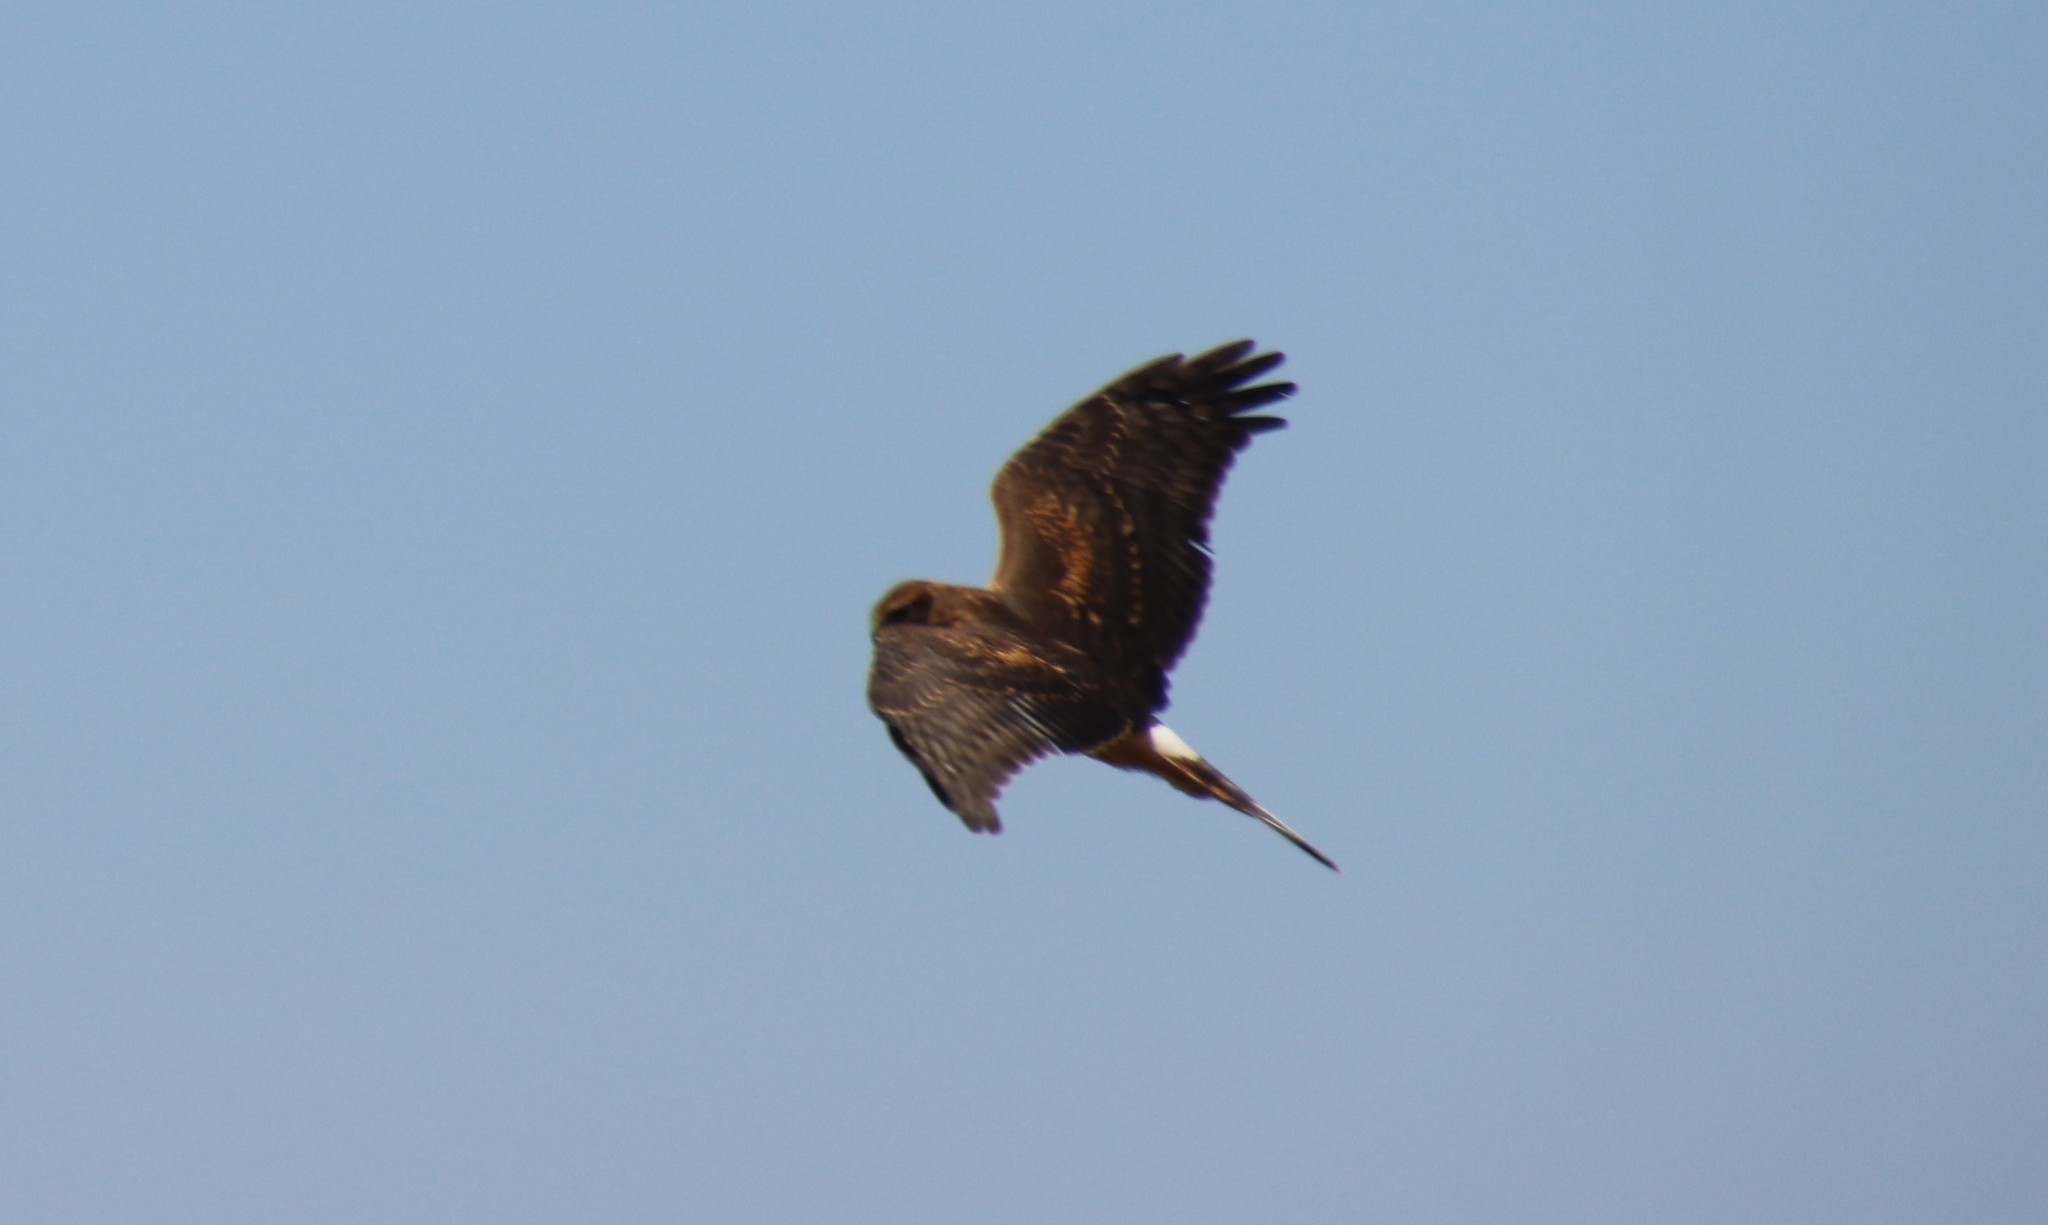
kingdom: Animalia
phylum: Chordata
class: Aves
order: Accipitriformes
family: Accipitridae
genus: Circus
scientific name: Circus cyaneus
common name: Hen harrier
